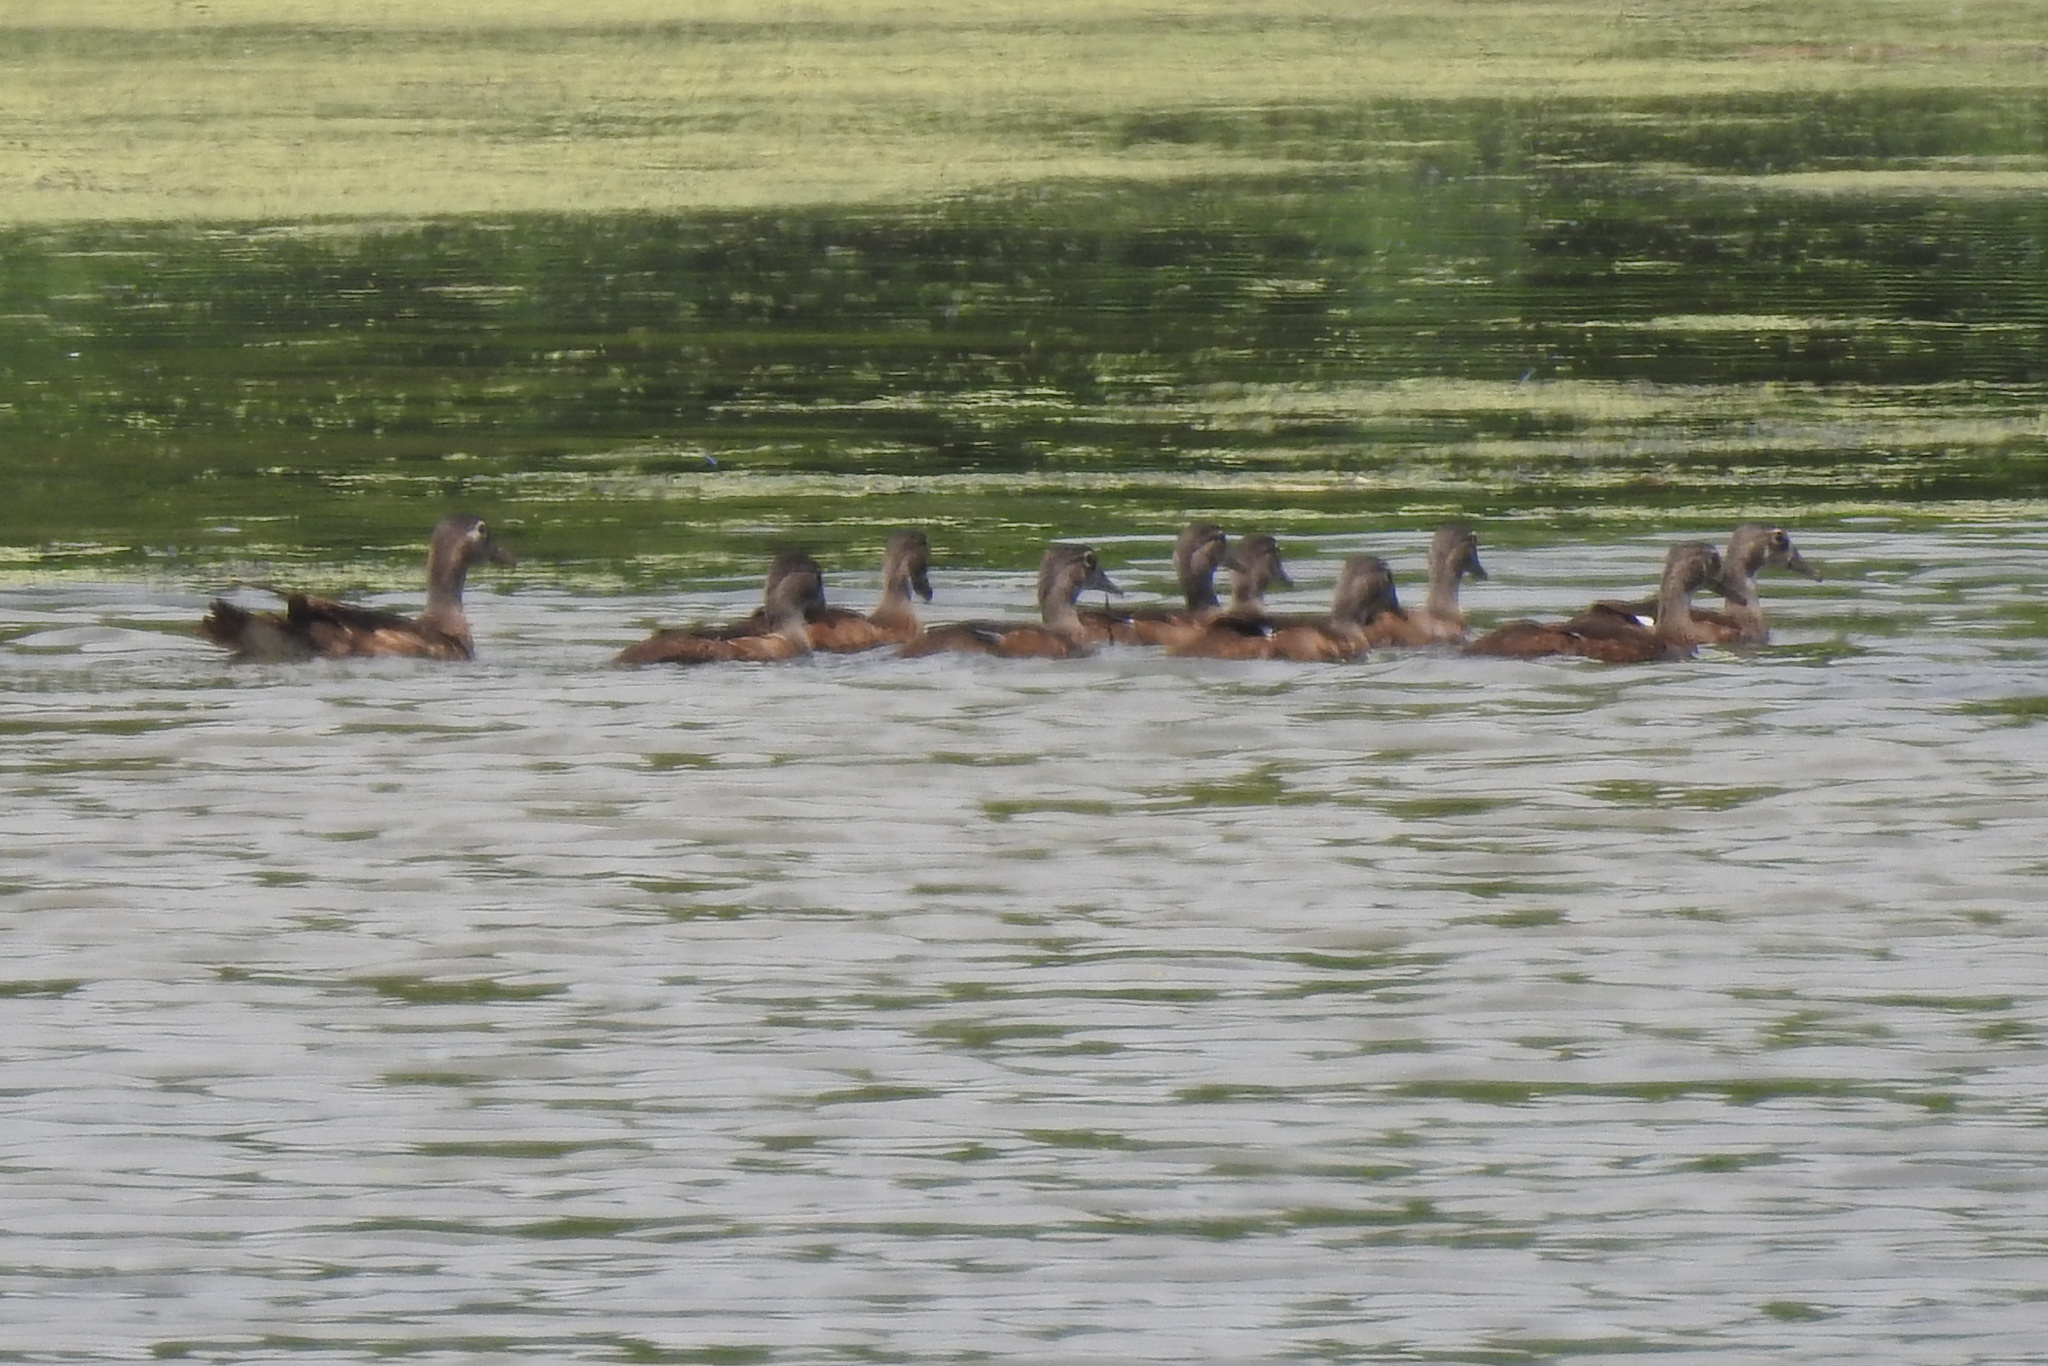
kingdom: Animalia
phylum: Chordata
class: Aves
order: Anseriformes
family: Anatidae
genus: Aix
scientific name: Aix sponsa
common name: Wood duck
